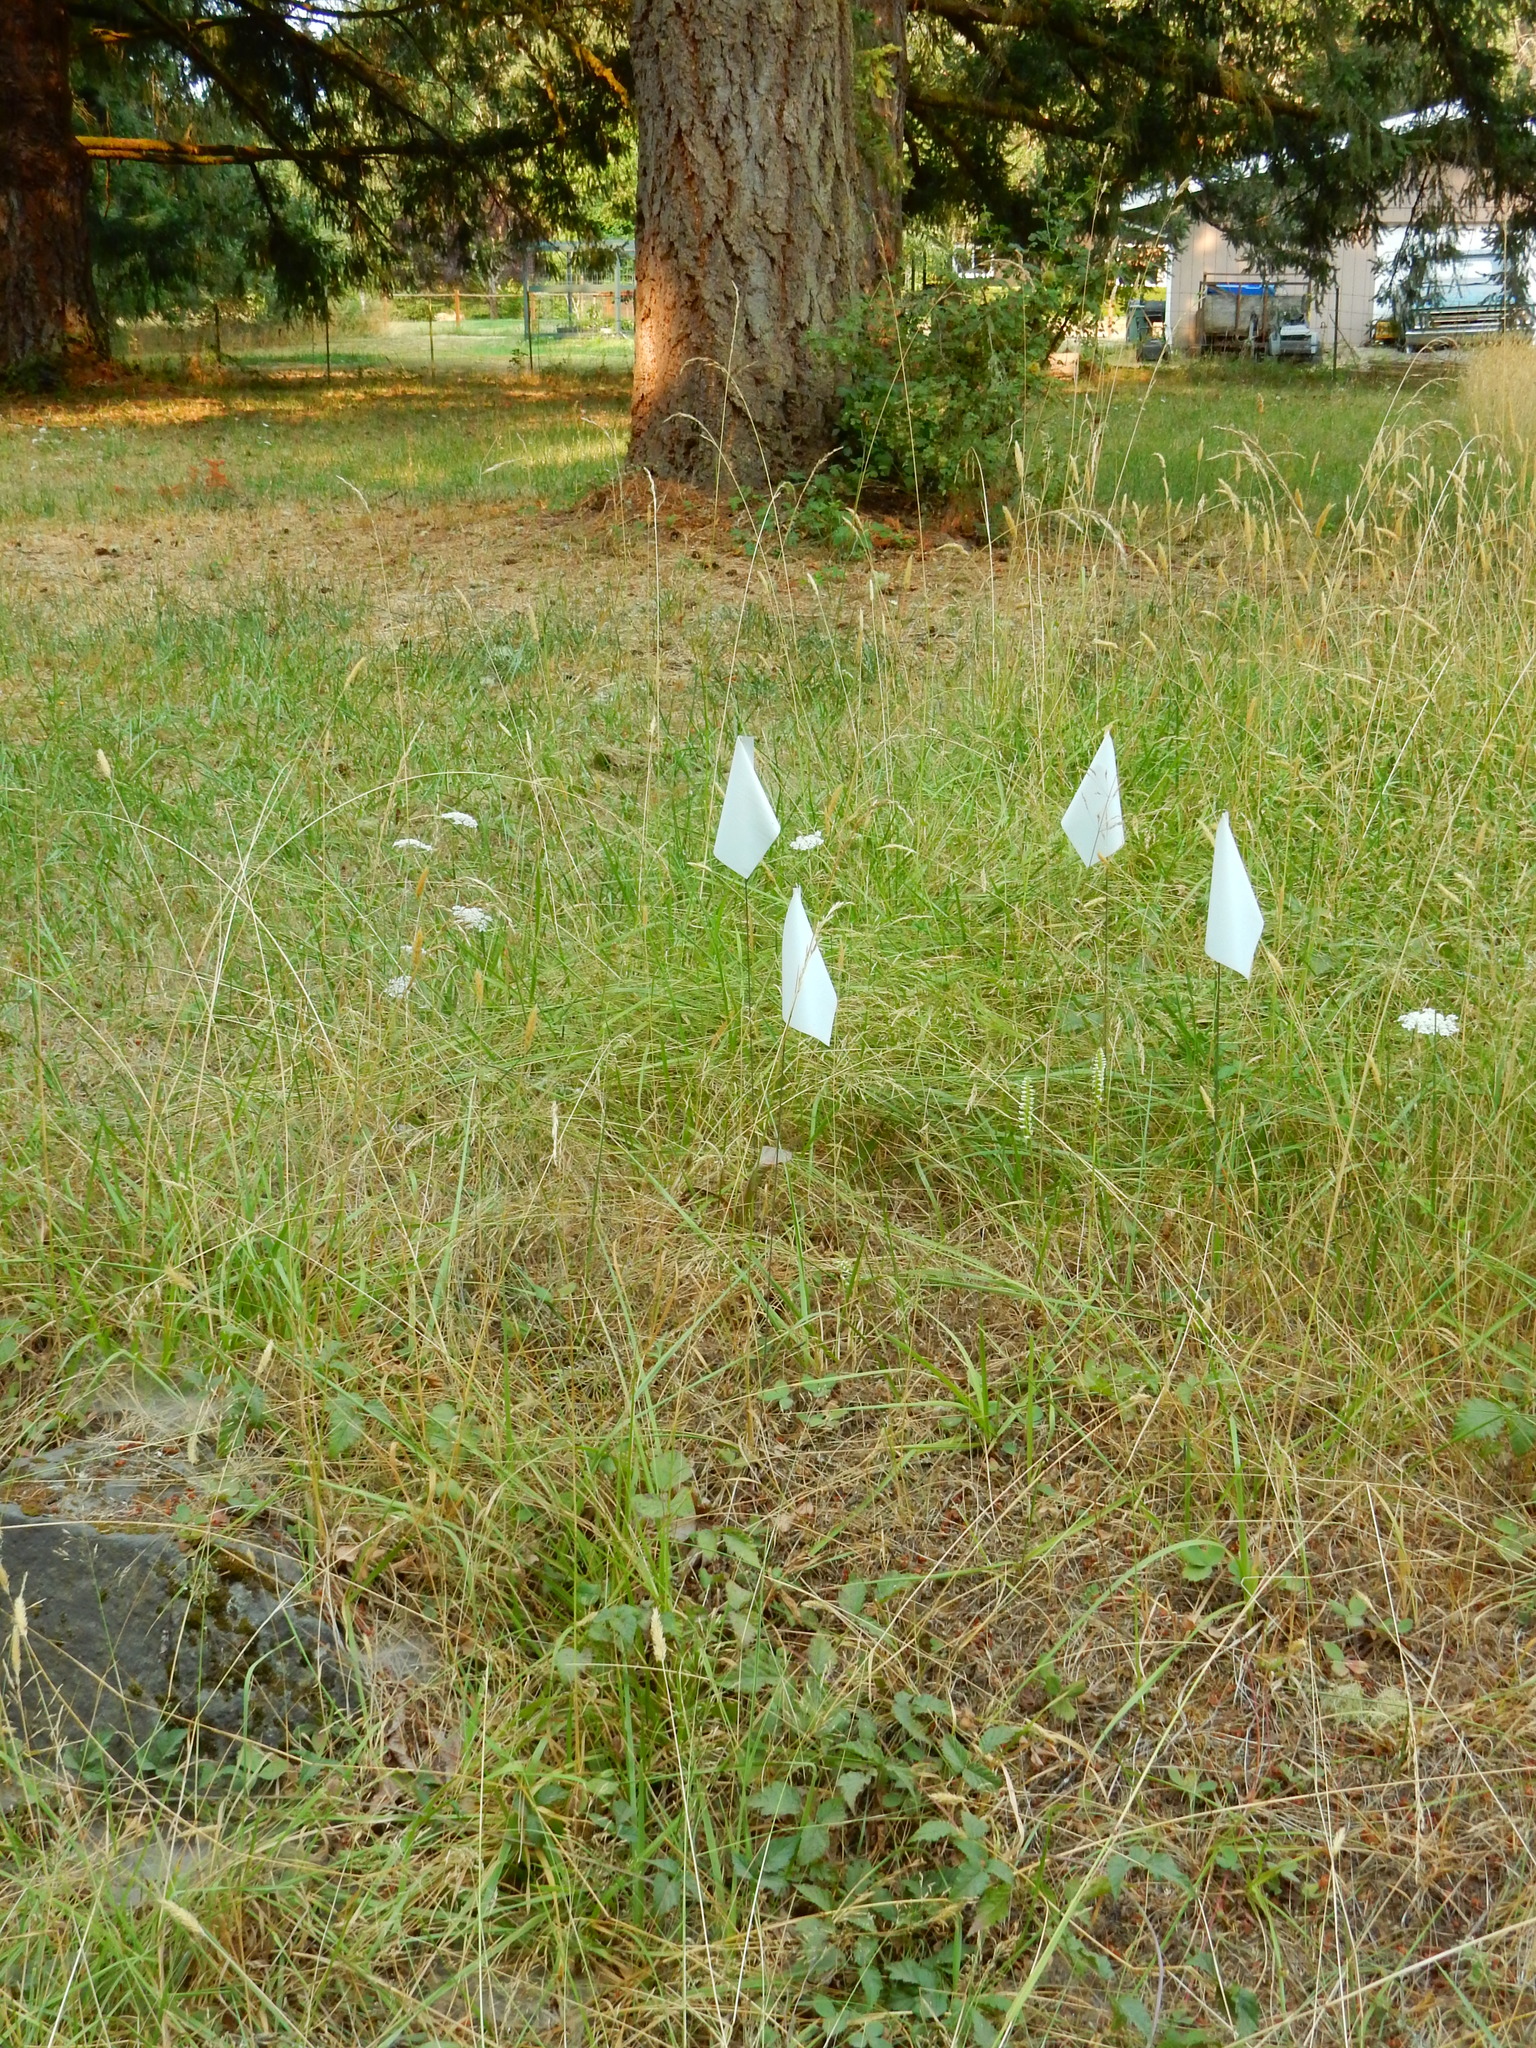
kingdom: Plantae
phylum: Tracheophyta
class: Liliopsida
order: Asparagales
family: Orchidaceae
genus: Spiranthes
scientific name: Spiranthes romanzoffiana
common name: Irish lady's-tresses
